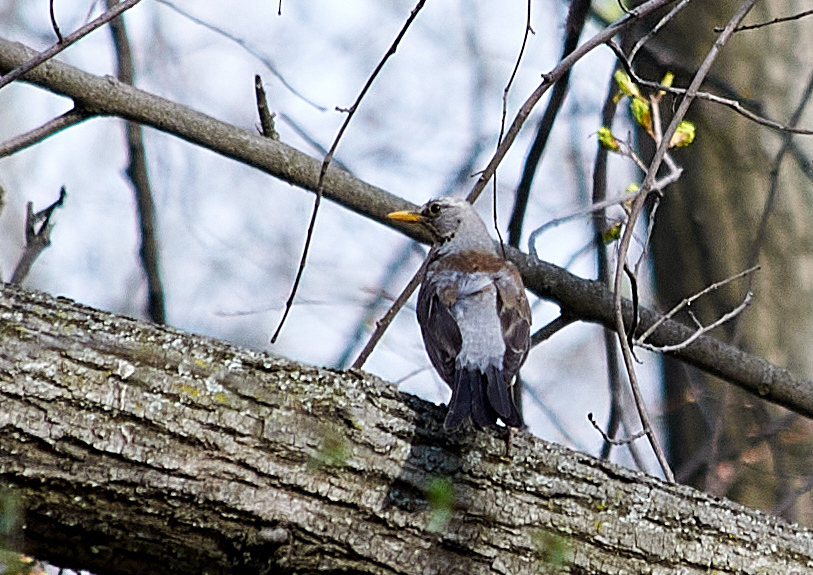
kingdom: Animalia
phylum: Chordata
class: Aves
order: Passeriformes
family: Turdidae
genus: Turdus
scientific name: Turdus pilaris
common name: Fieldfare
